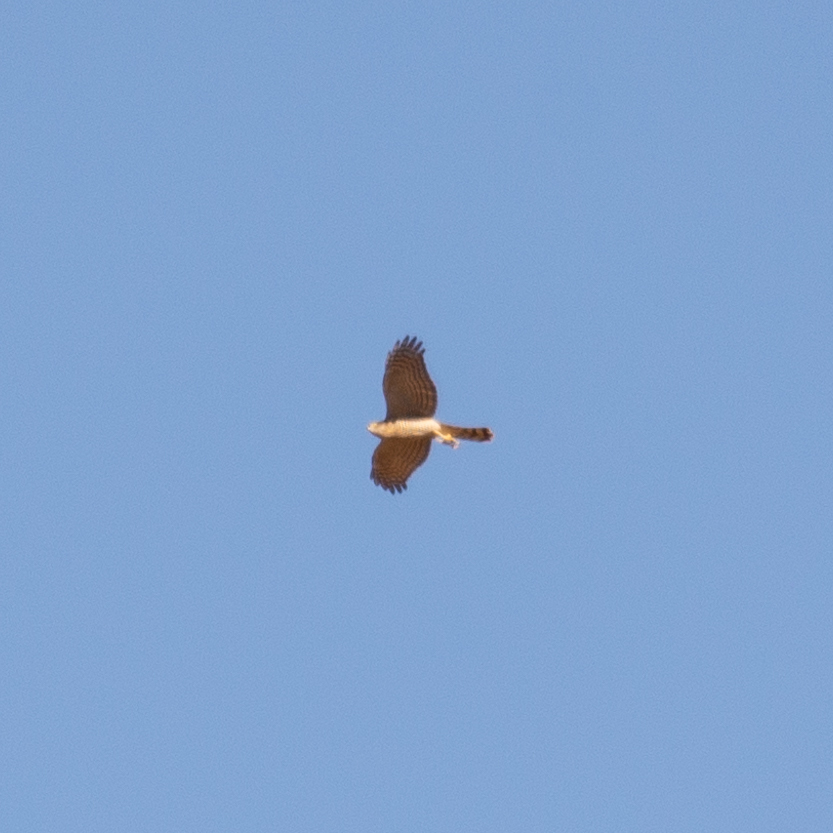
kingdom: Animalia
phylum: Chordata
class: Aves
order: Accipitriformes
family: Accipitridae
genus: Accipiter
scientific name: Accipiter nisus
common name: Eurasian sparrowhawk
